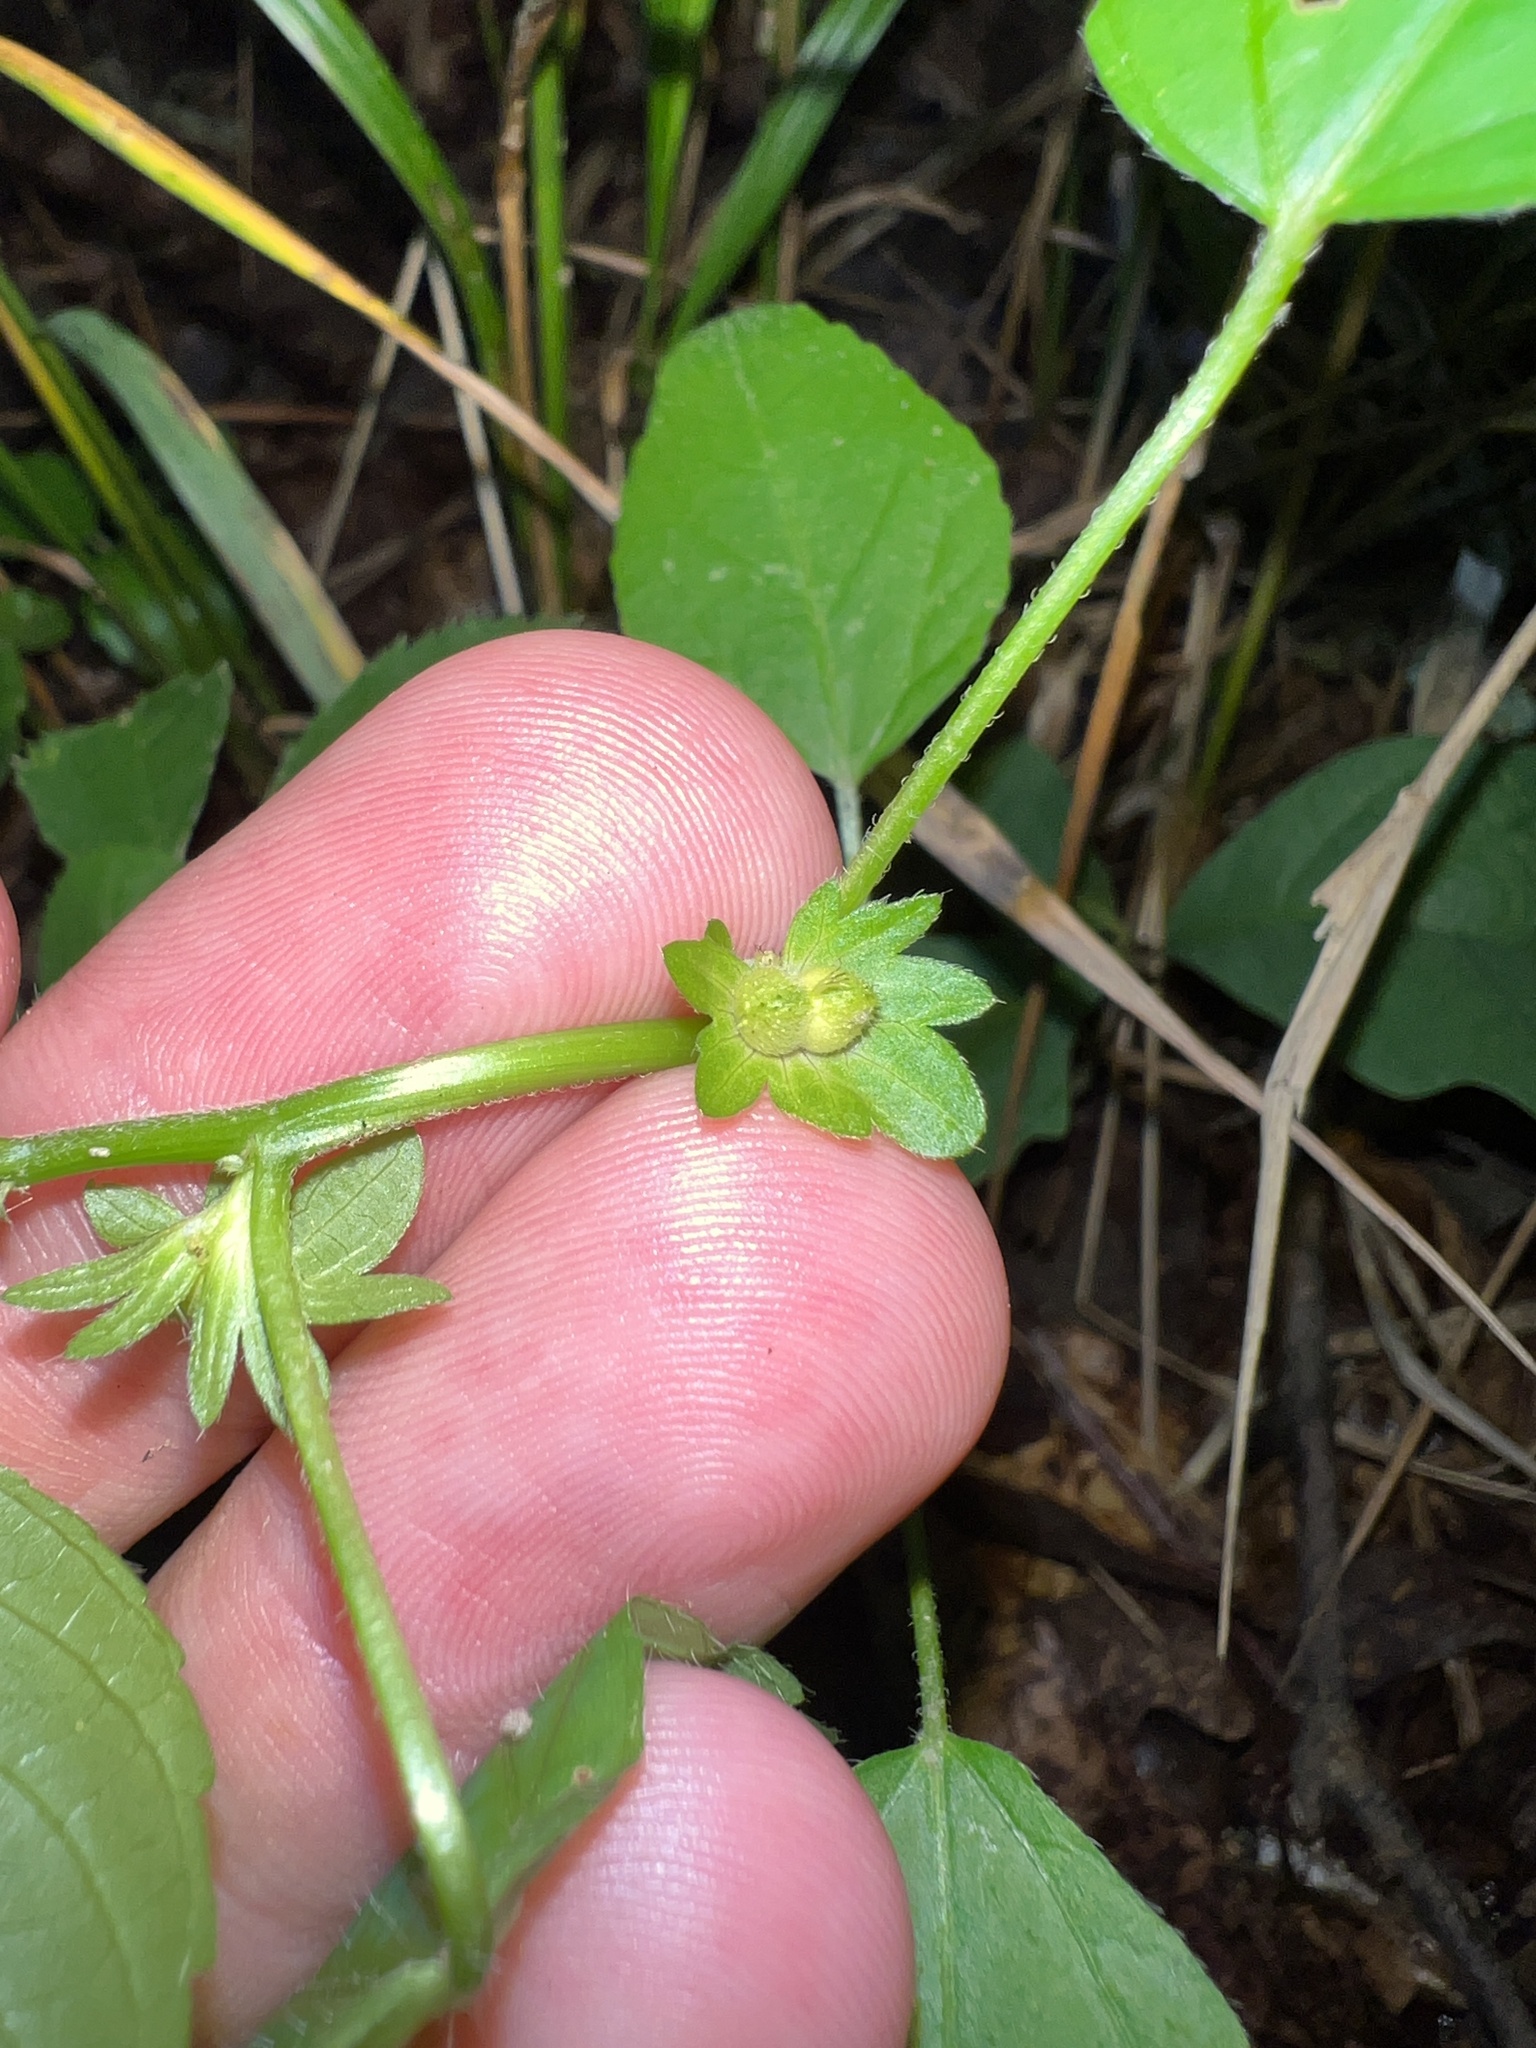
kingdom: Plantae
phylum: Tracheophyta
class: Magnoliopsida
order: Malpighiales
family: Euphorbiaceae
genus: Acalypha
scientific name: Acalypha deamii
